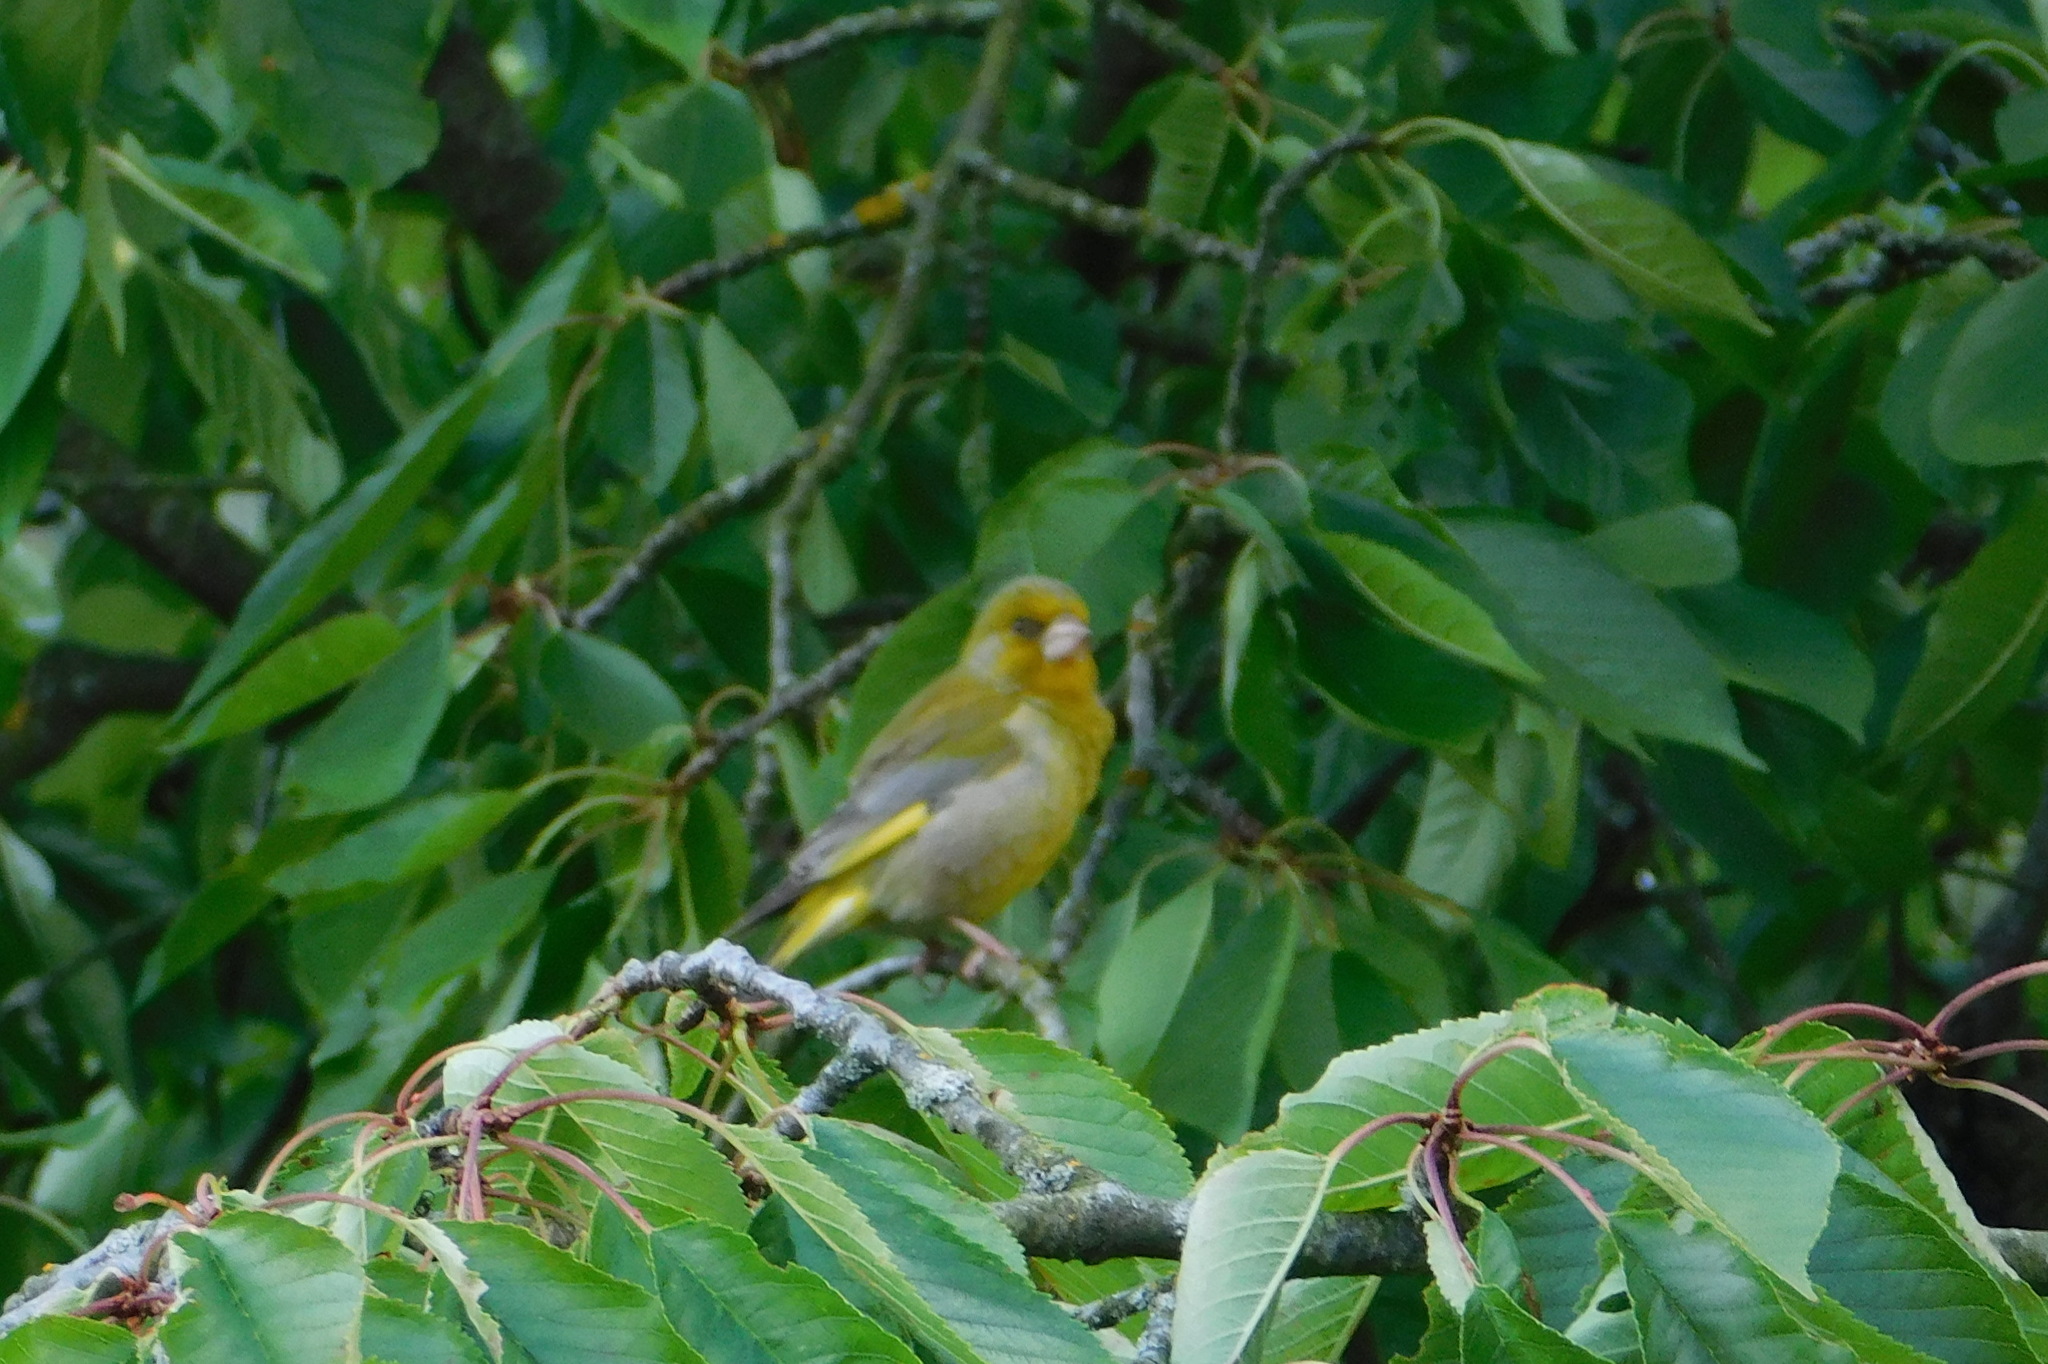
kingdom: Plantae
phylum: Tracheophyta
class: Liliopsida
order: Poales
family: Poaceae
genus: Chloris
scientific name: Chloris chloris
